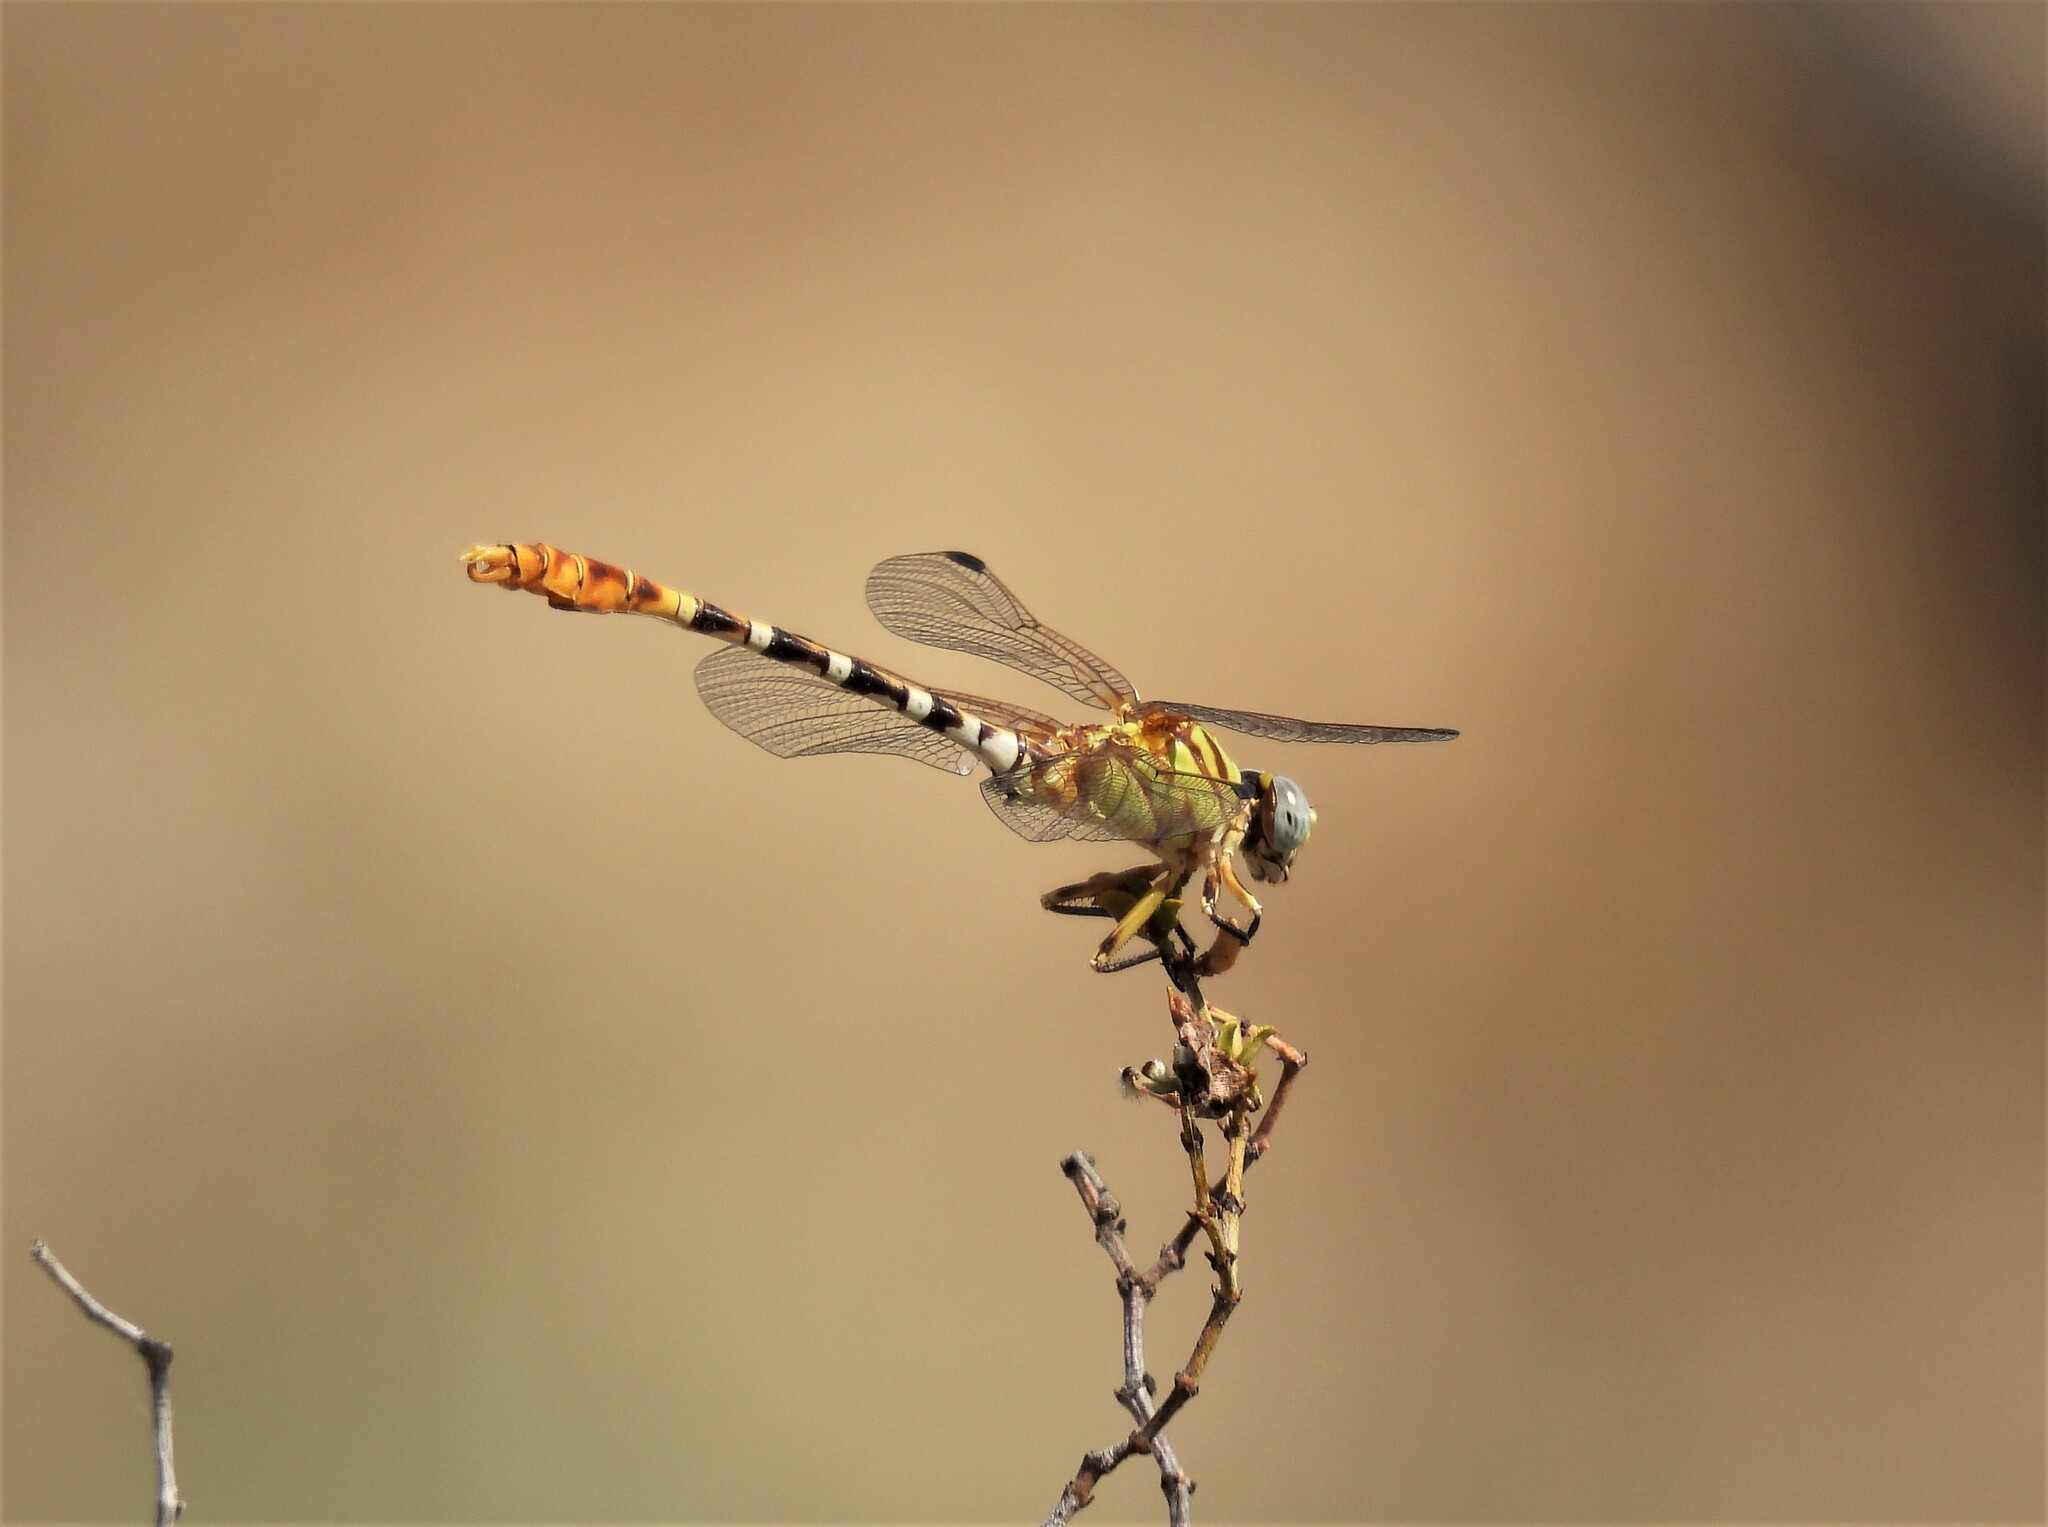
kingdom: Animalia
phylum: Arthropoda
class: Insecta
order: Odonata
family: Gomphidae
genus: Erpetogomphus
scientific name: Erpetogomphus designatus
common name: Eastern ringtail
